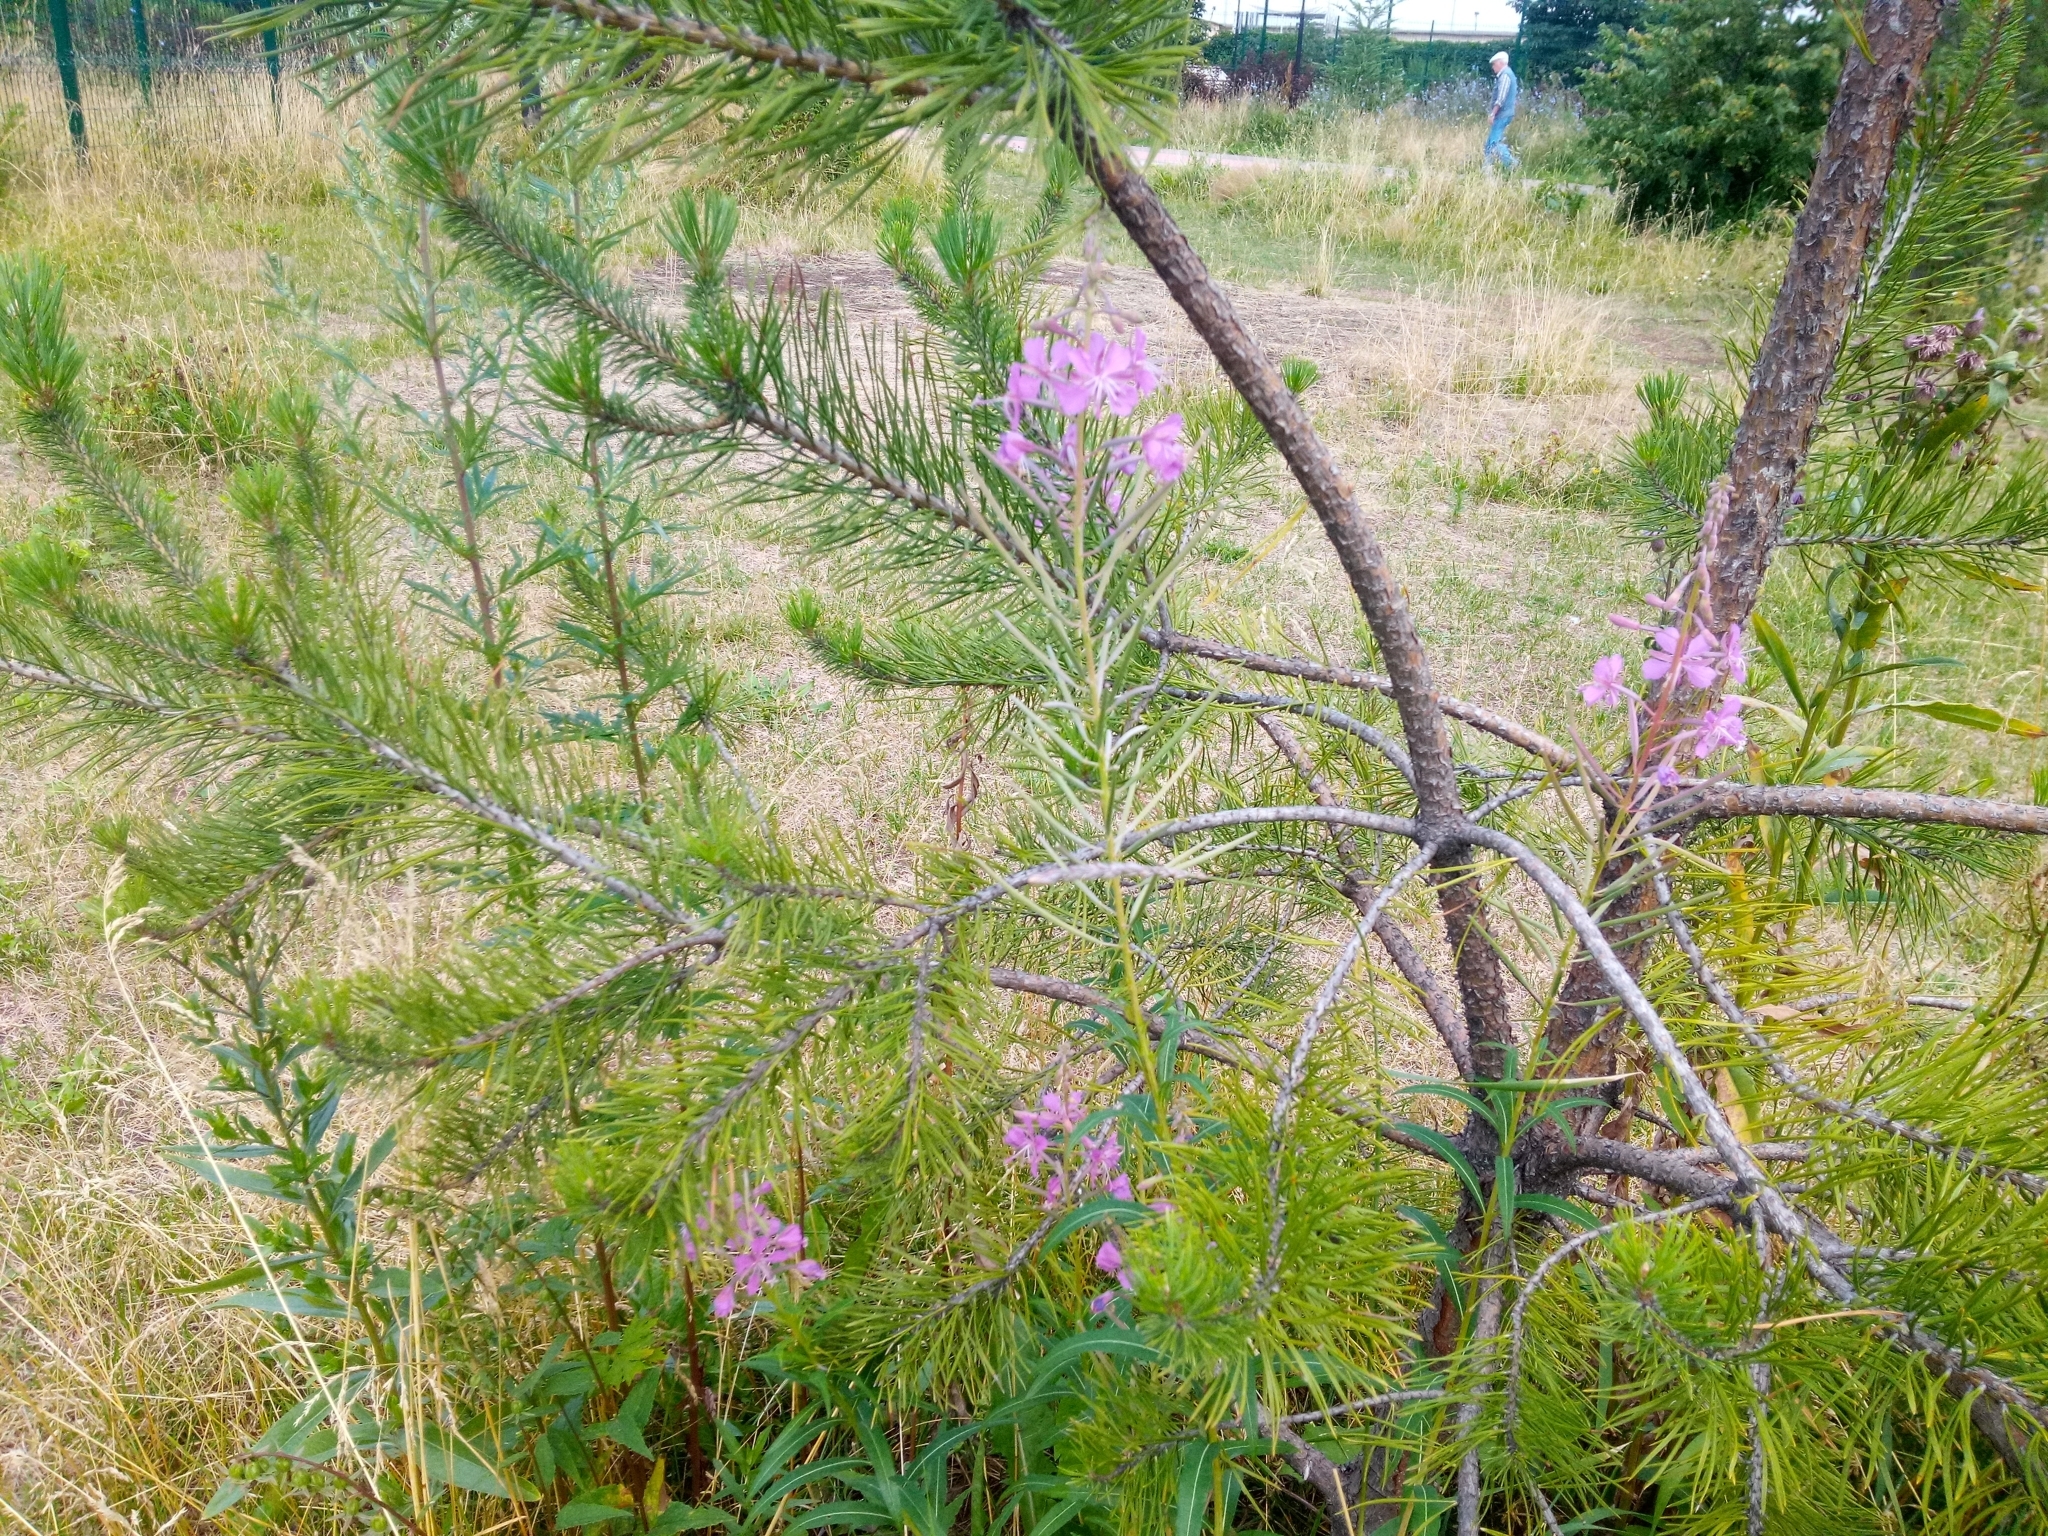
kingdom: Plantae
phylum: Tracheophyta
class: Magnoliopsida
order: Myrtales
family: Onagraceae
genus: Chamaenerion
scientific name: Chamaenerion angustifolium
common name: Fireweed
